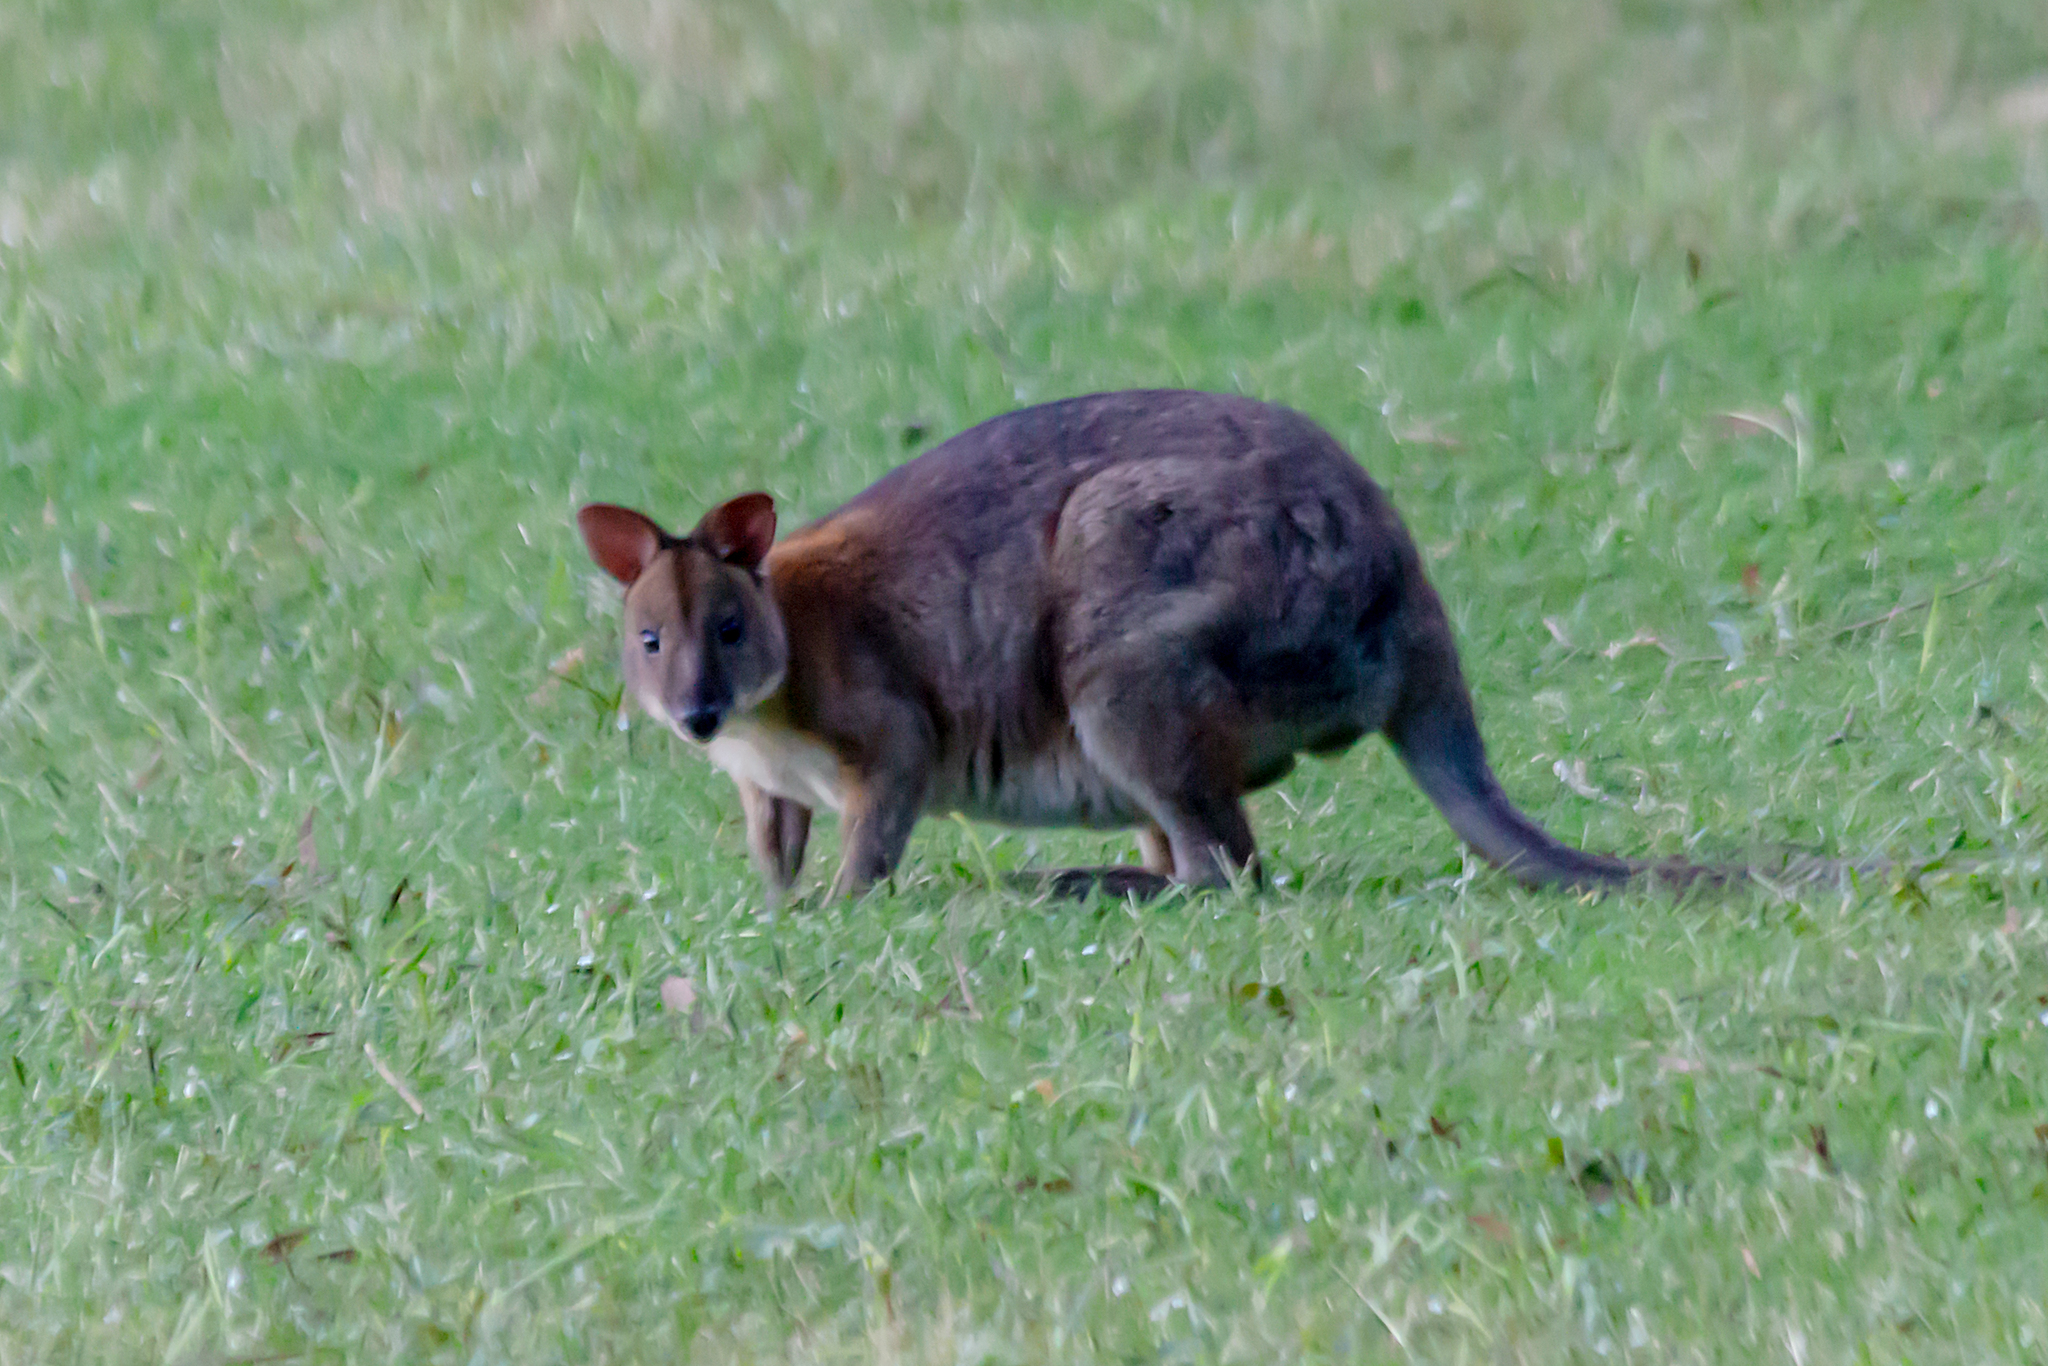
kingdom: Animalia
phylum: Chordata
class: Mammalia
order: Diprotodontia
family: Macropodidae
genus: Thylogale
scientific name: Thylogale thetis
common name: Red-necked pademelon
